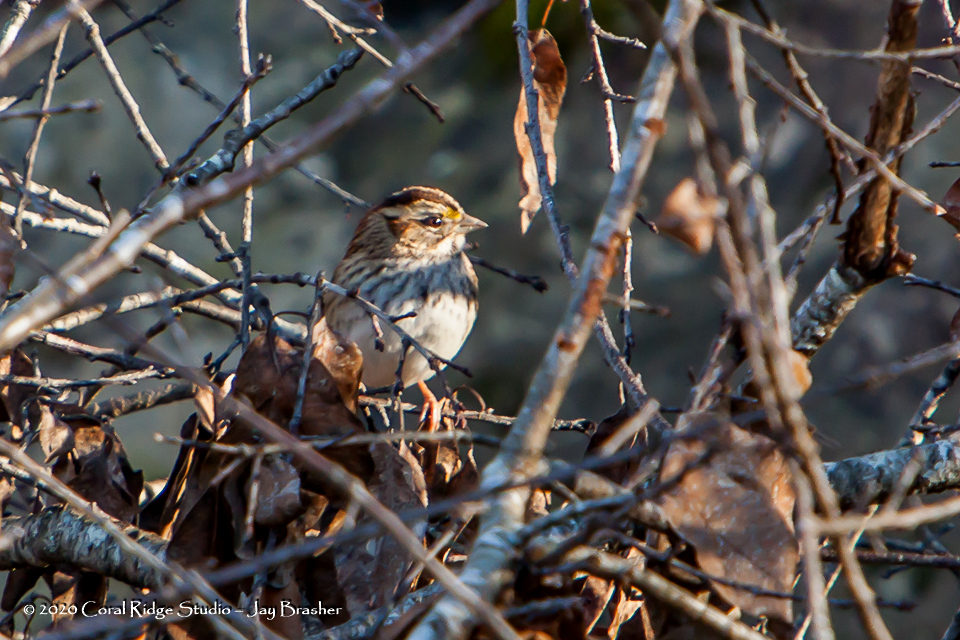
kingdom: Animalia
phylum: Chordata
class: Aves
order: Passeriformes
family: Passerellidae
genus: Zonotrichia
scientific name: Zonotrichia albicollis
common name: White-throated sparrow
